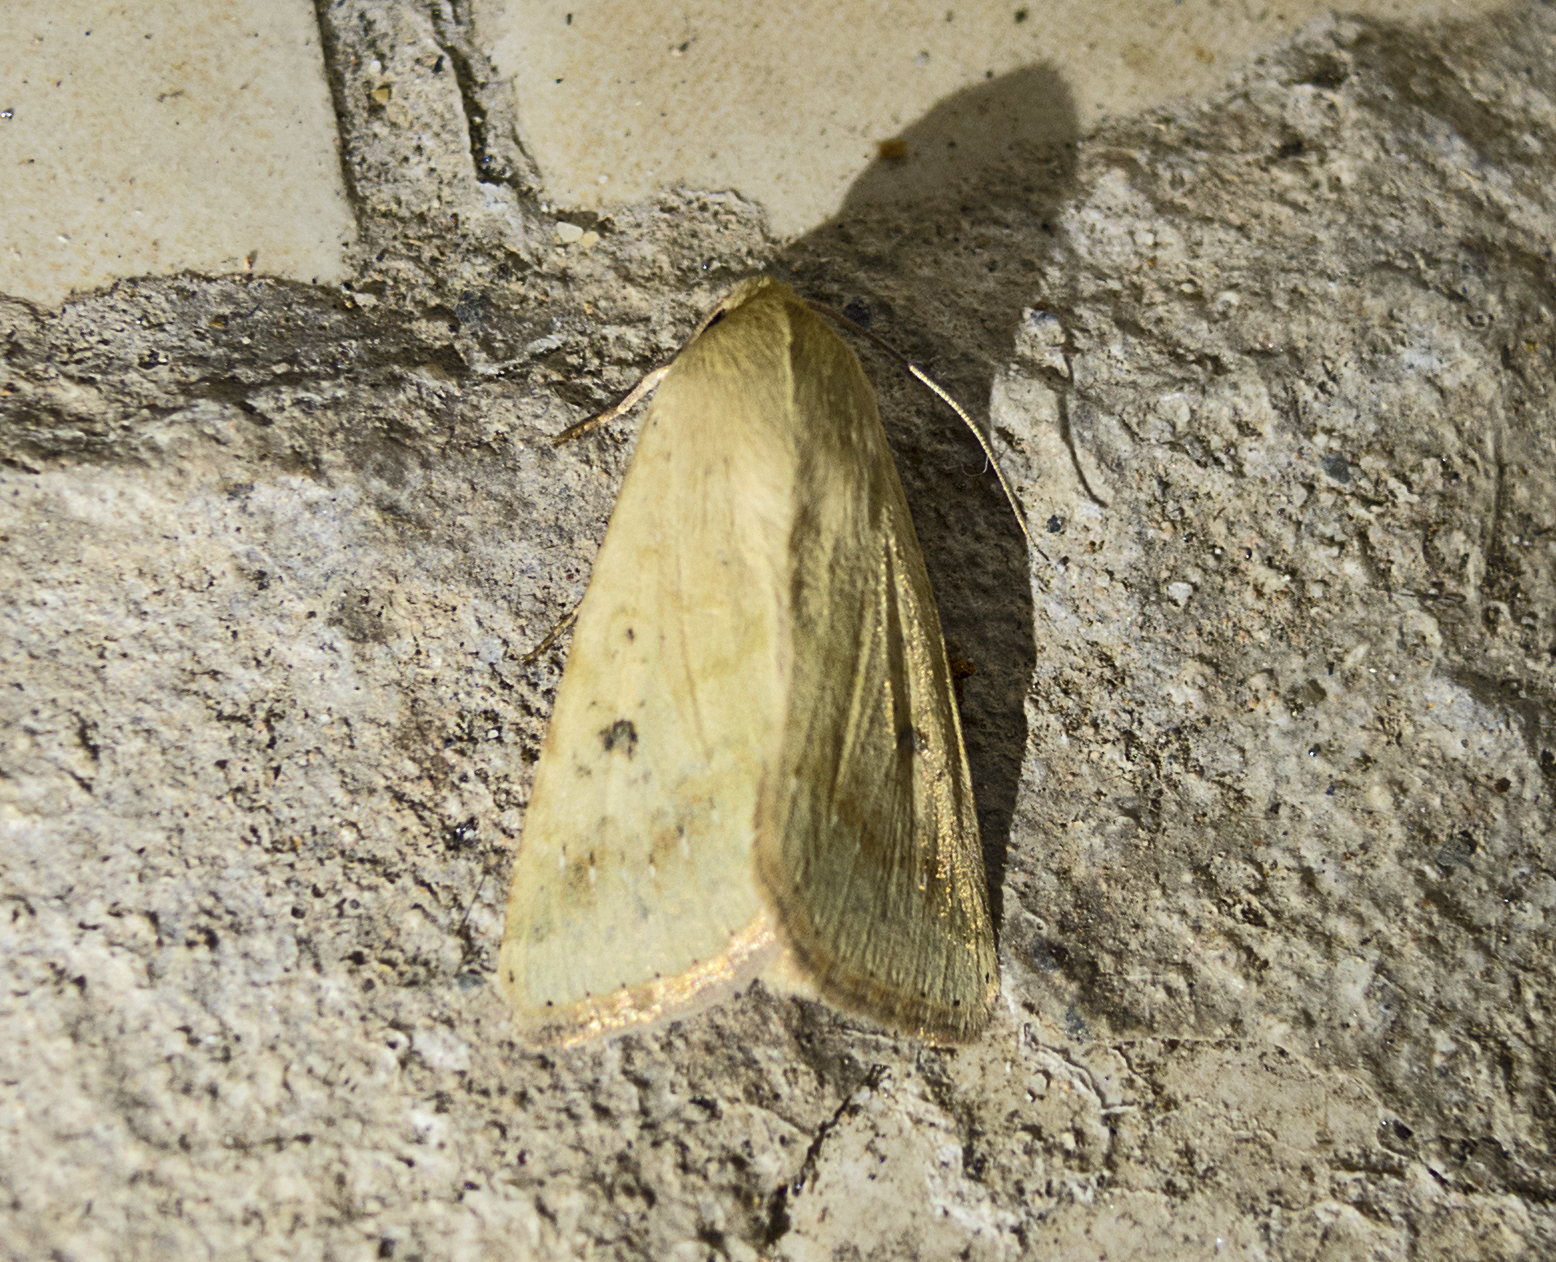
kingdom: Animalia
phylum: Arthropoda
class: Insecta
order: Lepidoptera
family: Noctuidae
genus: Helicoverpa
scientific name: Helicoverpa armigera
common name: Cotton bollworm
